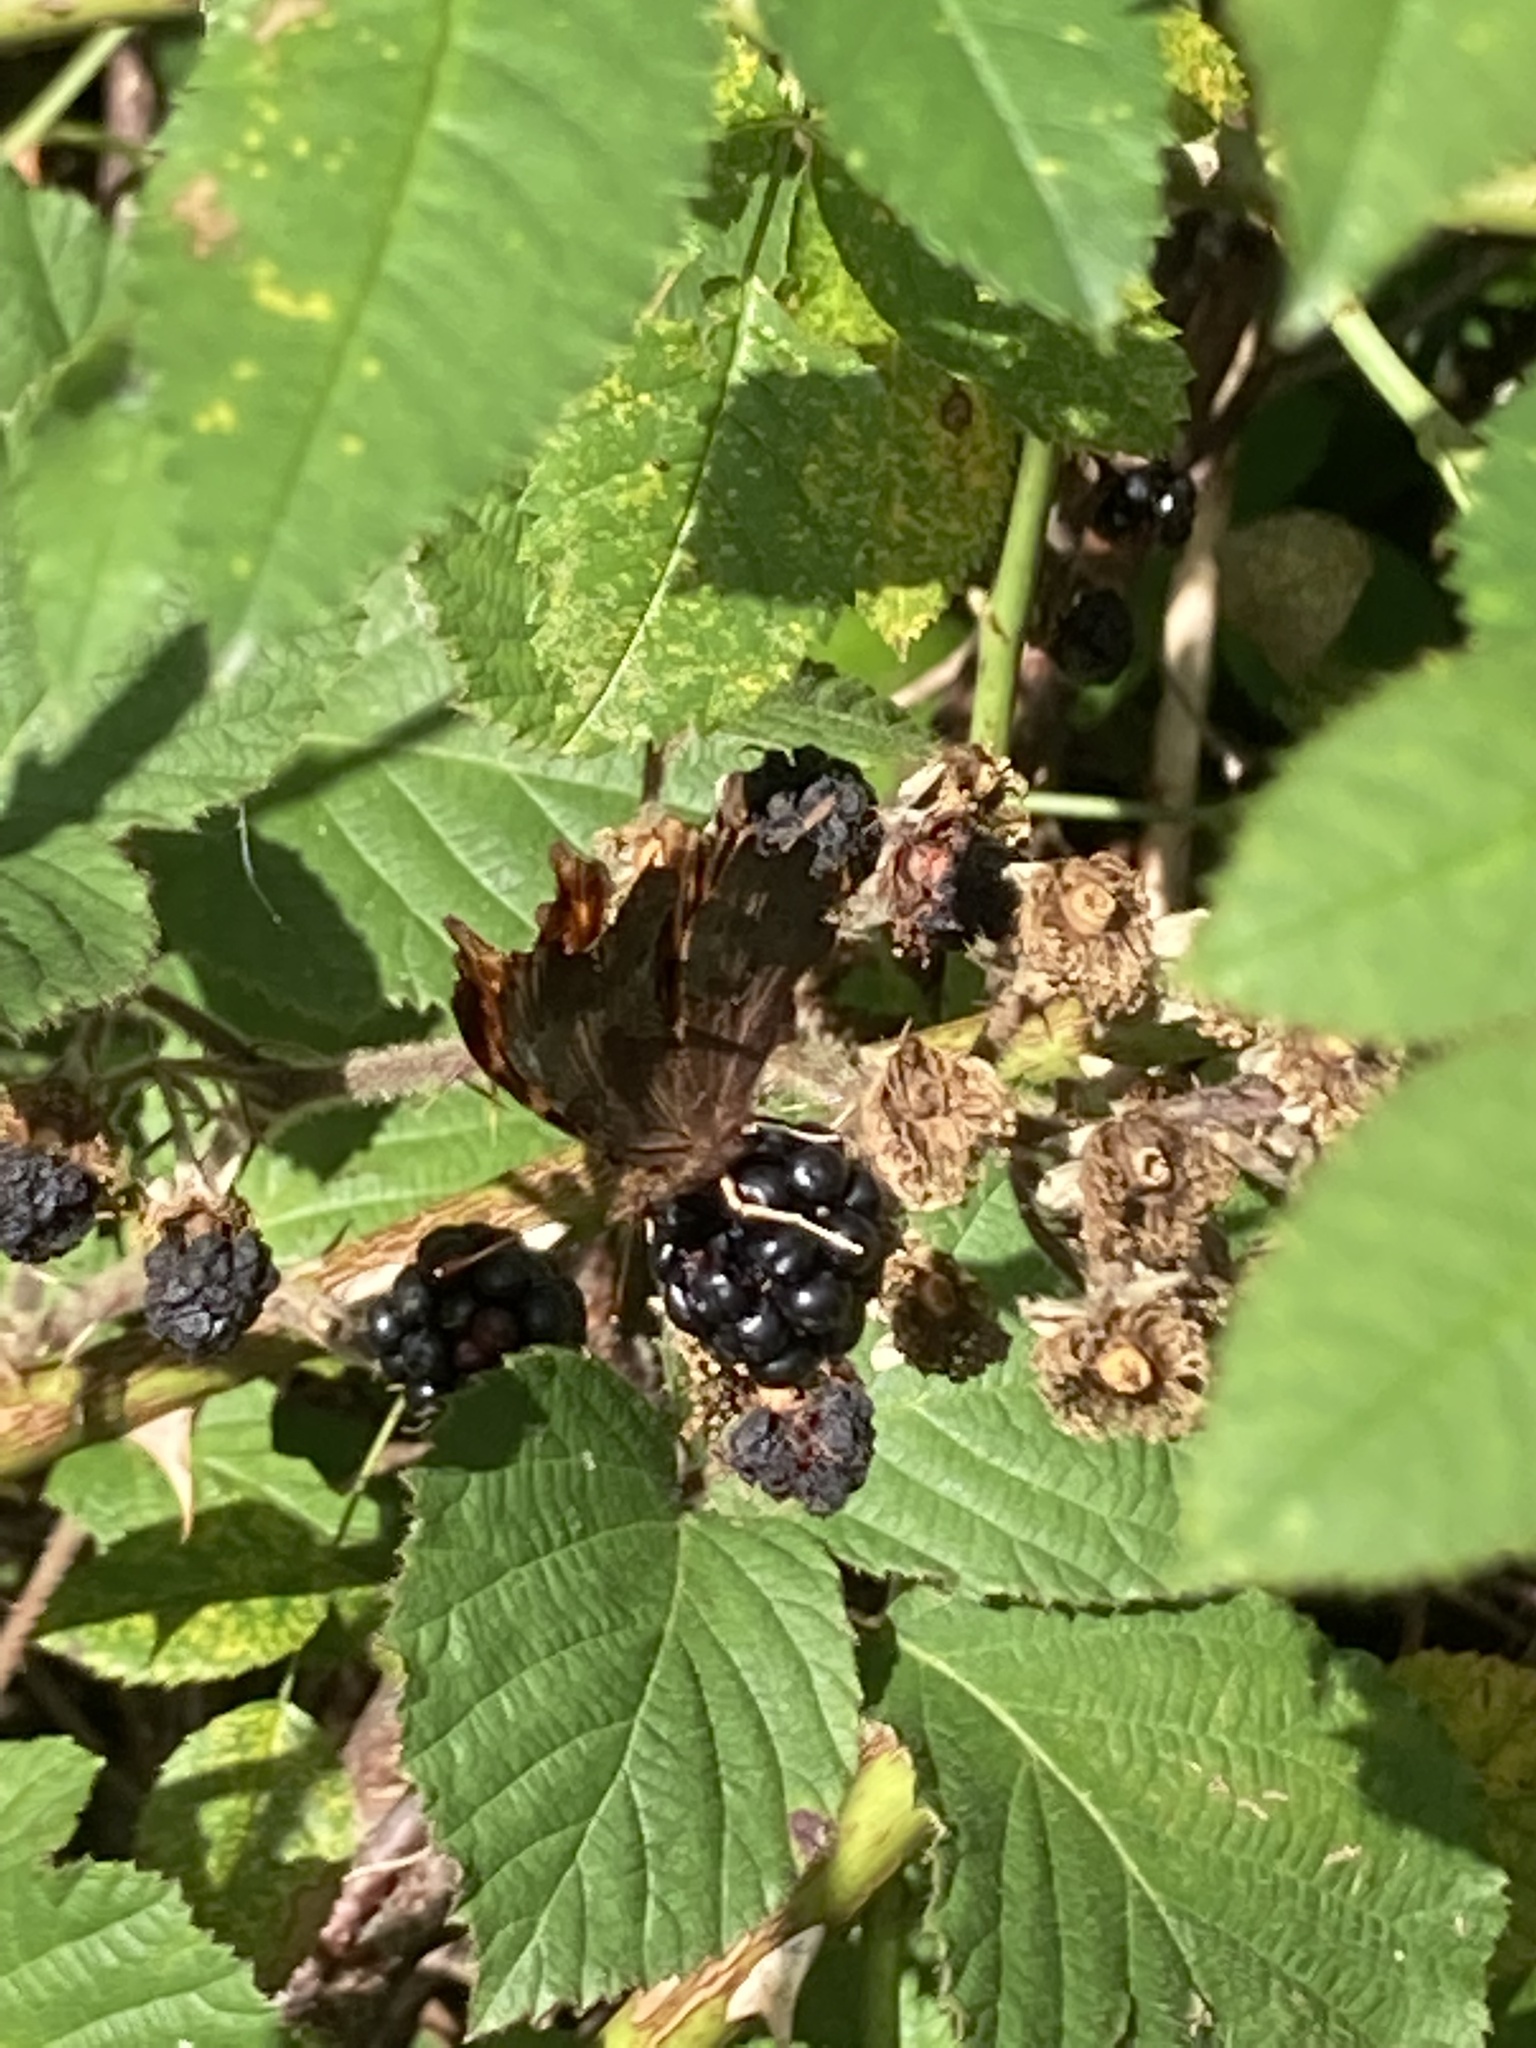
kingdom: Animalia
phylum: Arthropoda
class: Insecta
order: Lepidoptera
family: Nymphalidae
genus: Polygonia
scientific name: Polygonia c-album
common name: Comma
